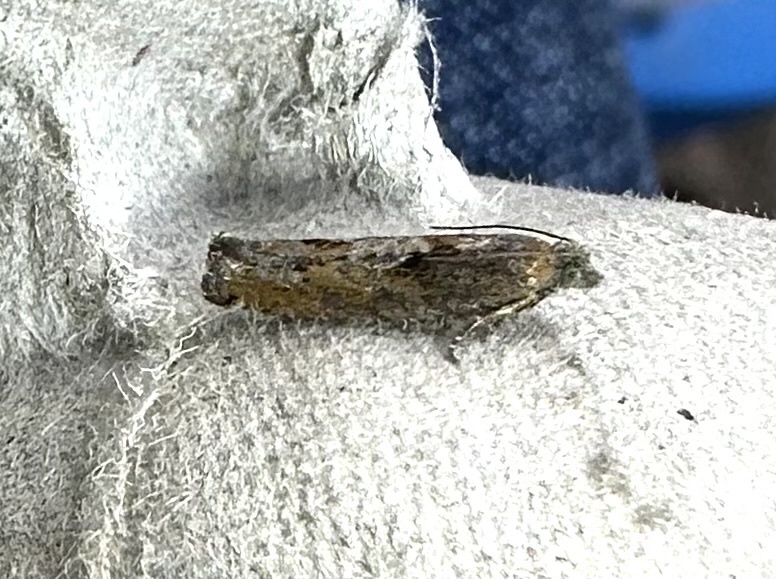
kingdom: Animalia
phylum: Arthropoda
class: Insecta
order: Lepidoptera
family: Tortricidae
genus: Pseudexentera
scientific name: Pseudexentera mali
